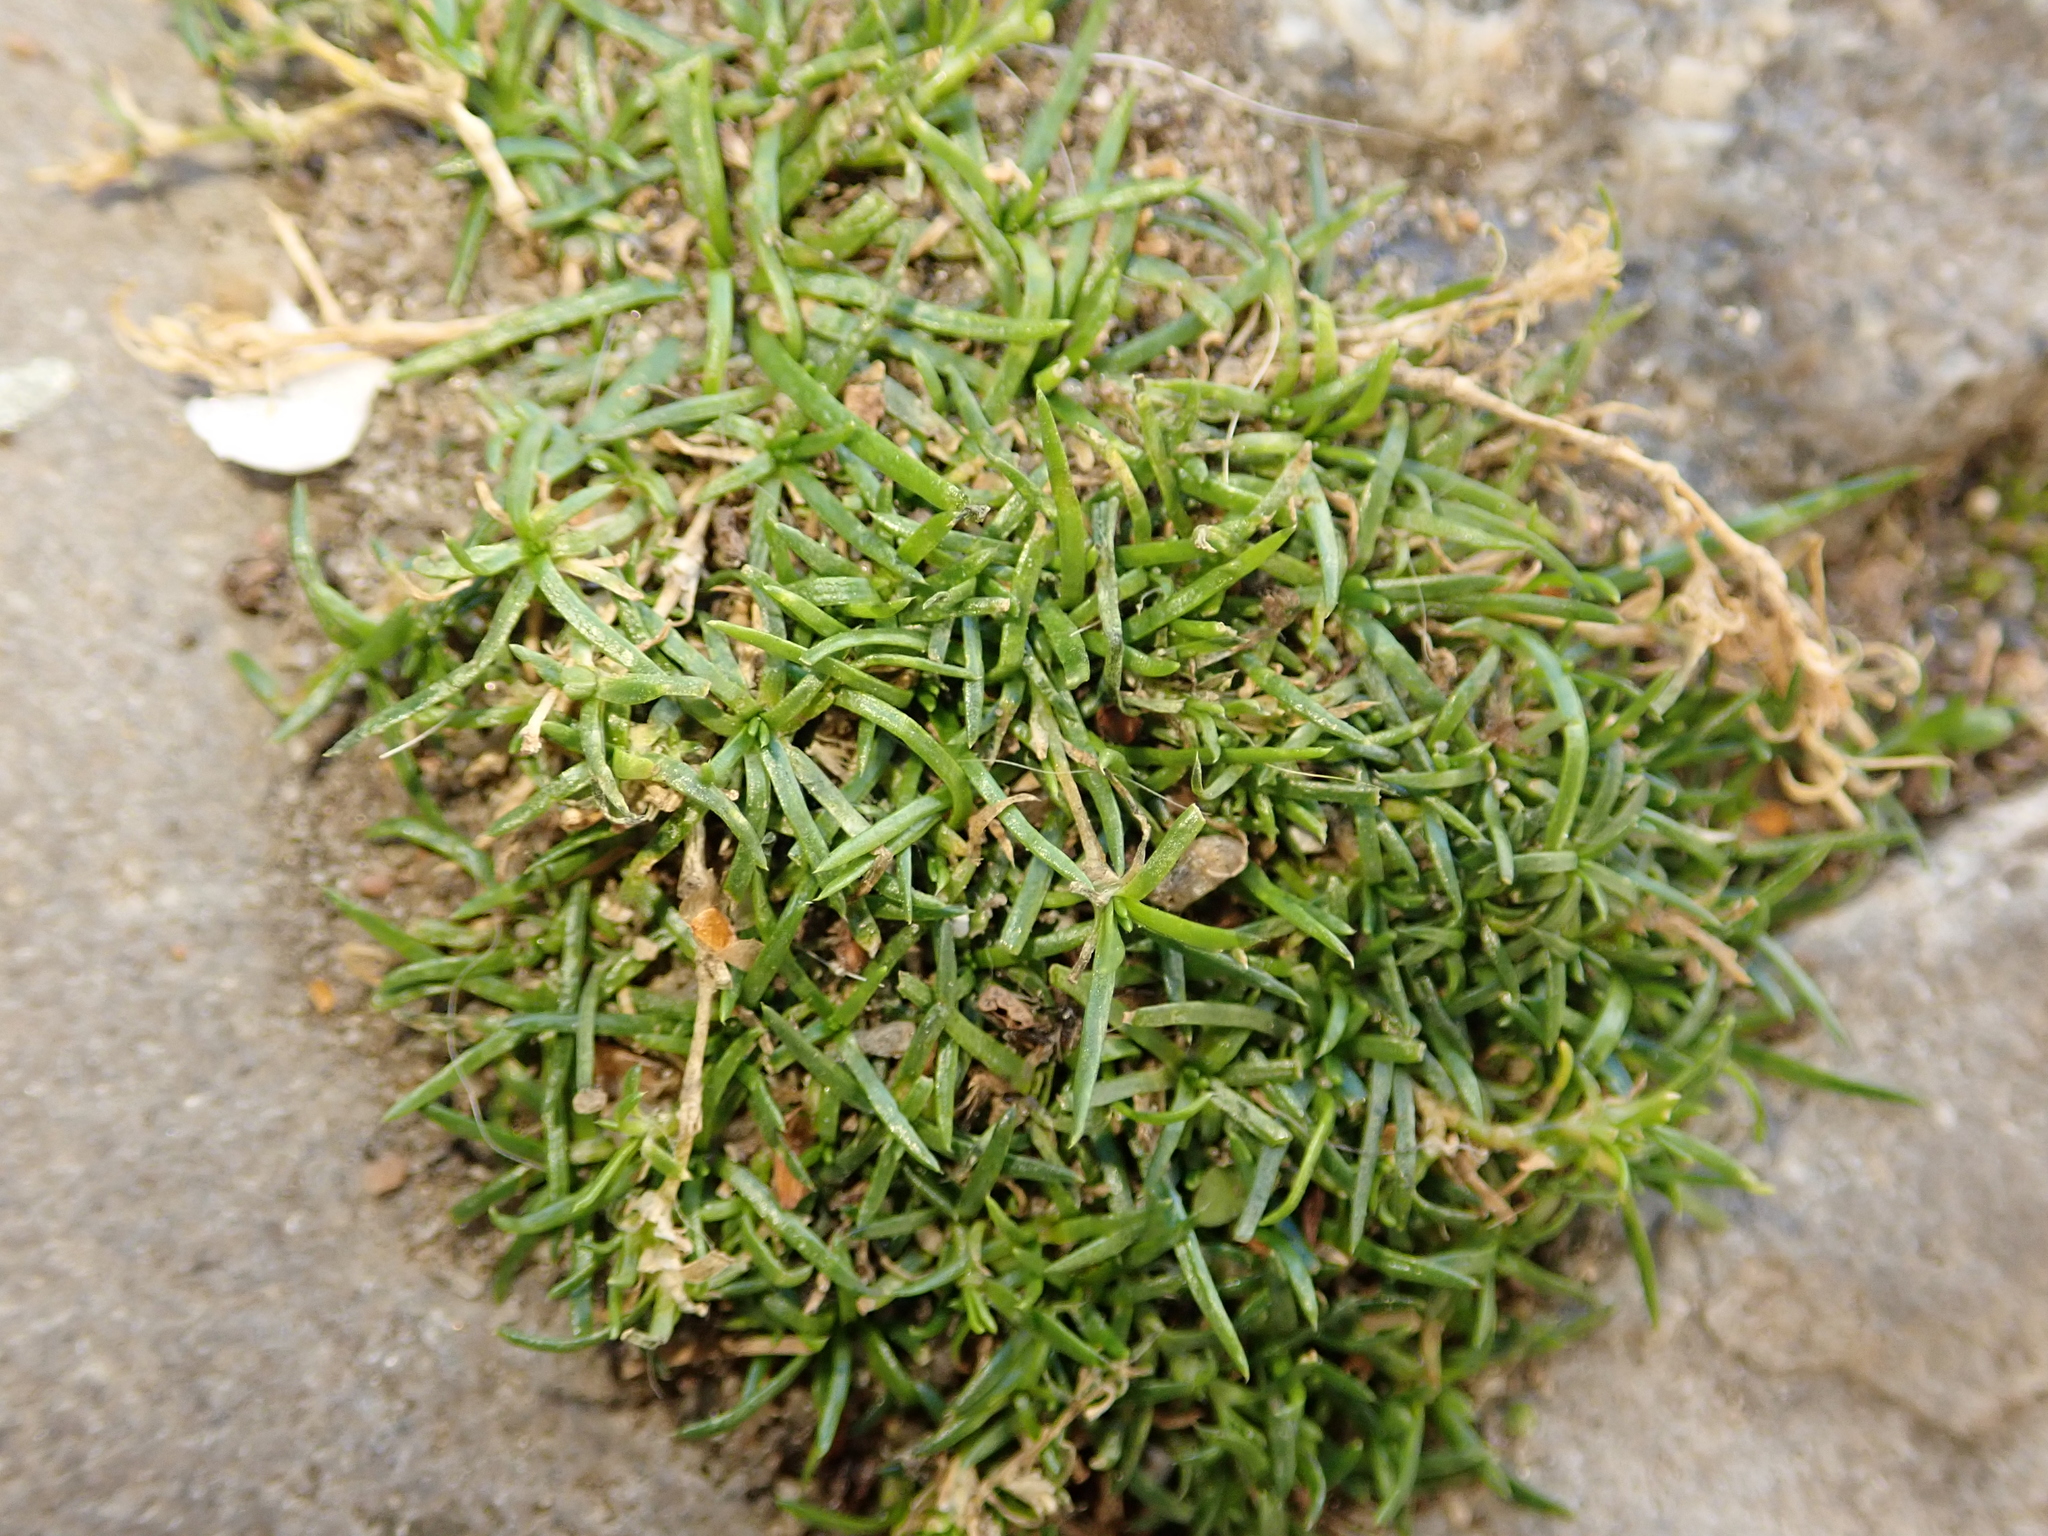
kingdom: Plantae
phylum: Tracheophyta
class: Magnoliopsida
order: Caryophyllales
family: Caryophyllaceae
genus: Sagina
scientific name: Sagina procumbens
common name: Procumbent pearlwort
